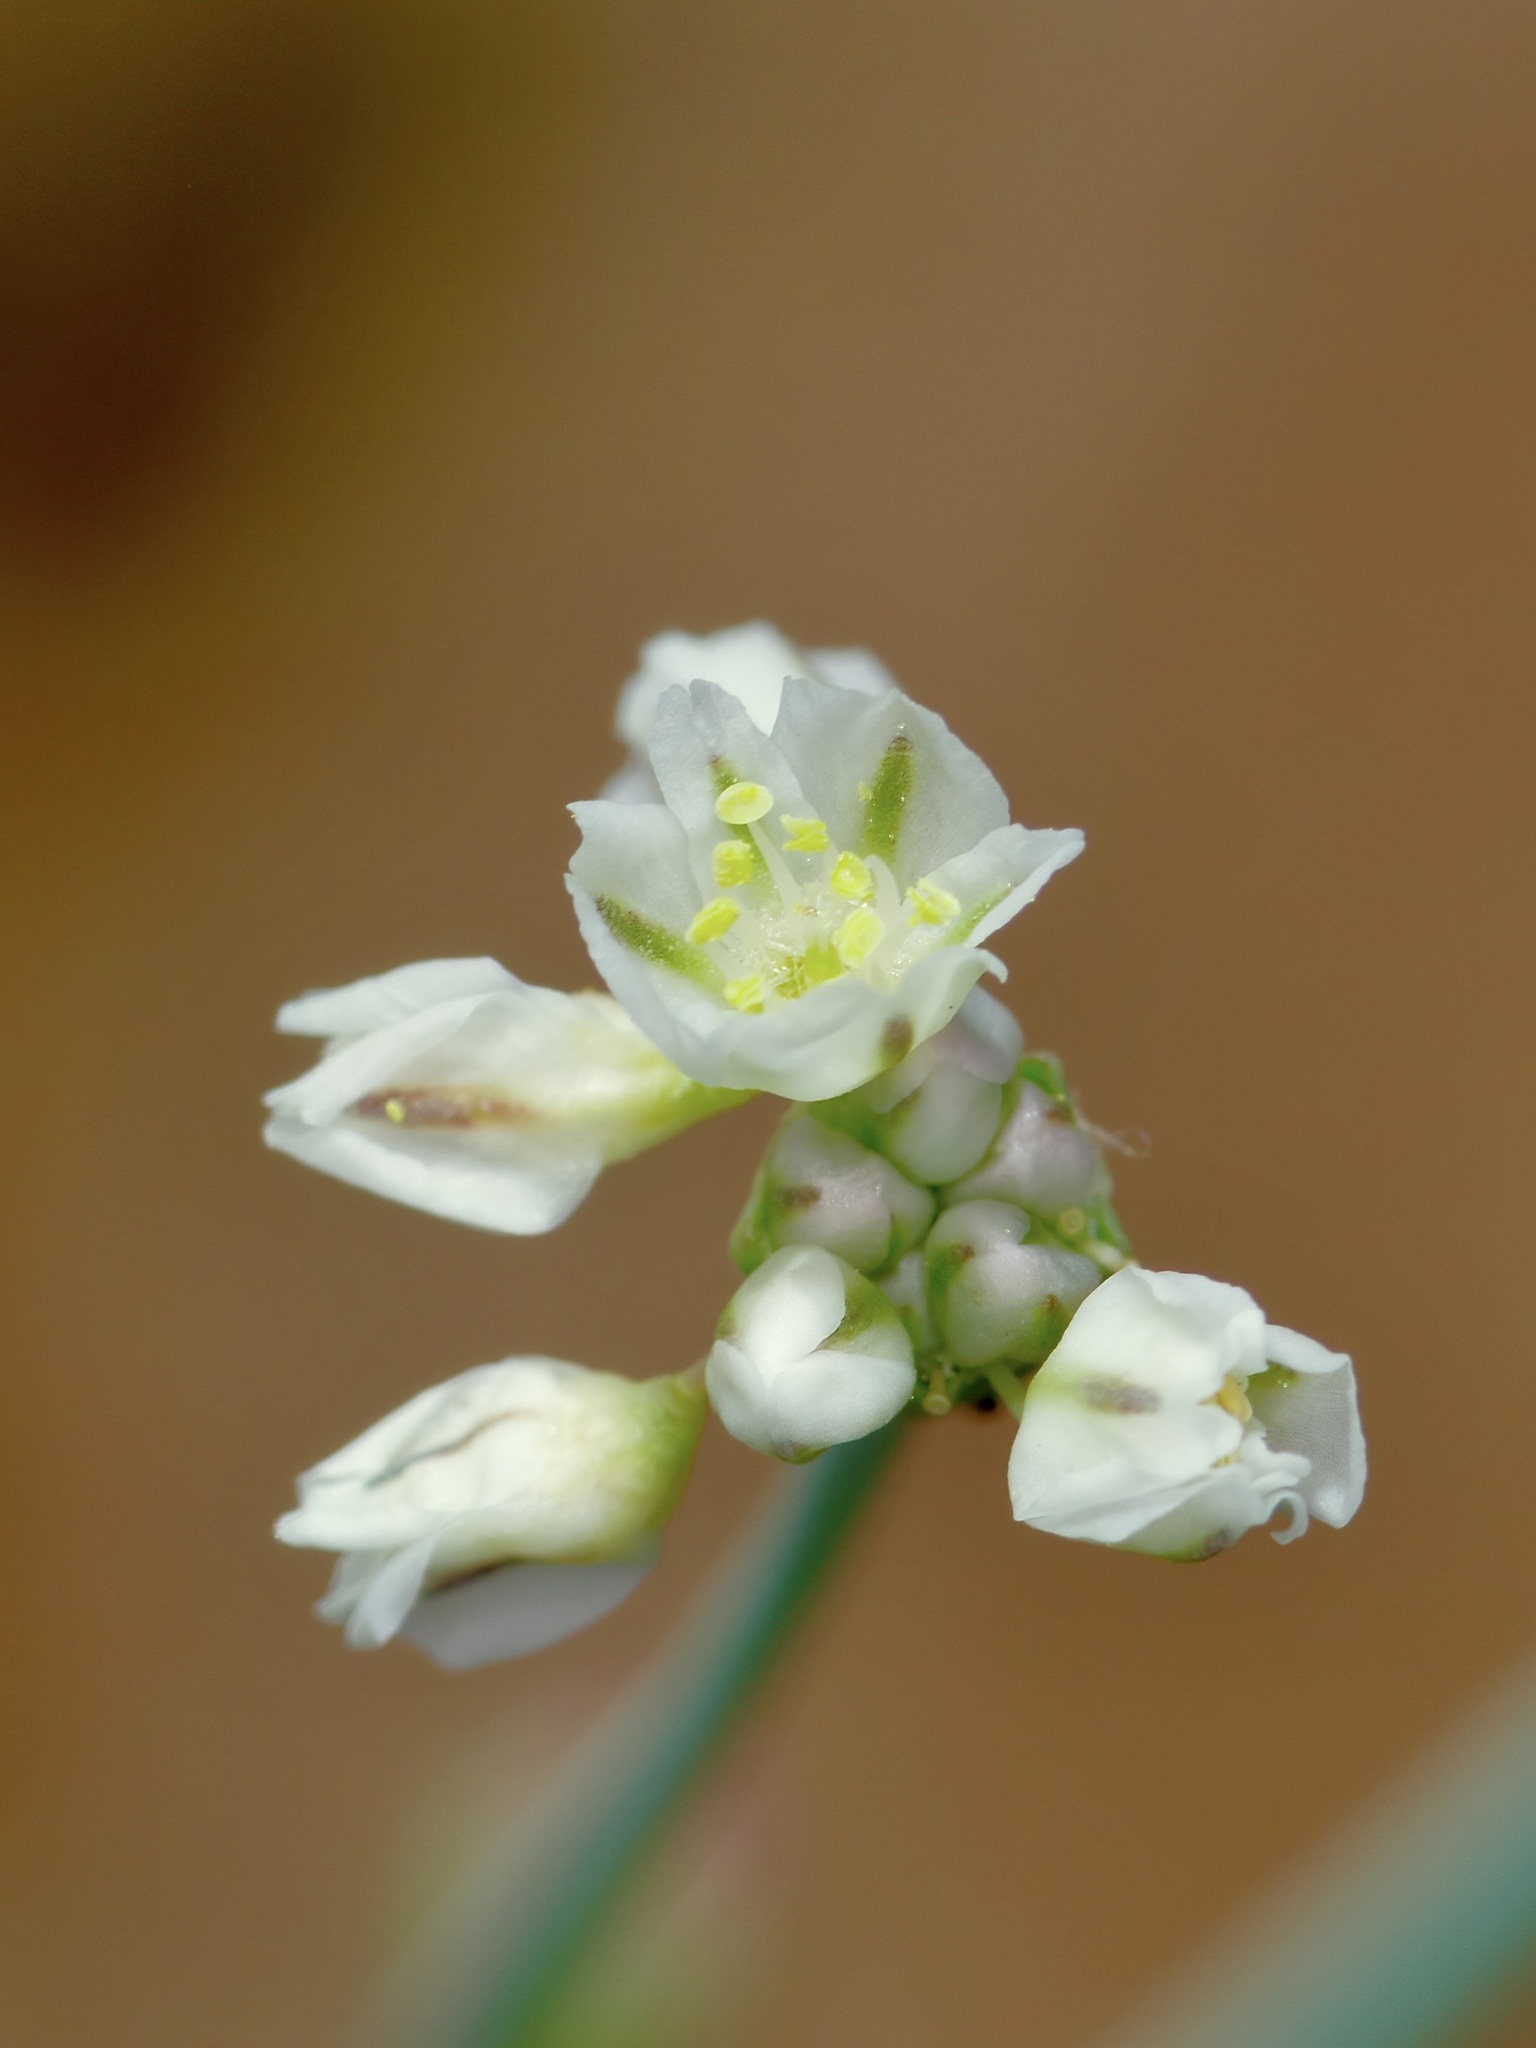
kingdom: Plantae
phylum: Tracheophyta
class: Magnoliopsida
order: Caryophyllales
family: Polygonaceae
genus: Eriogonum
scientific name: Eriogonum tenellum
